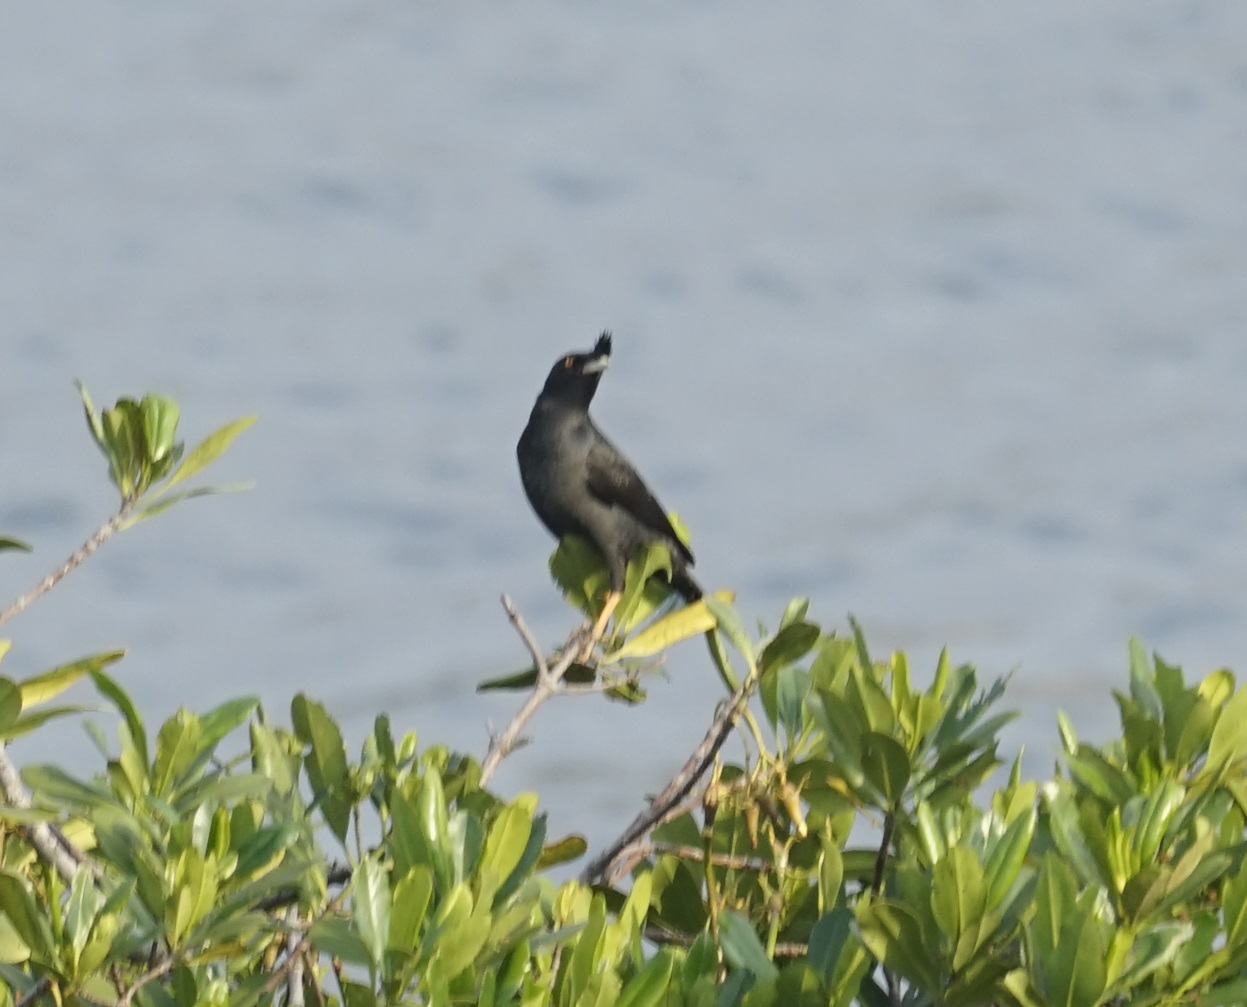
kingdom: Animalia
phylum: Chordata
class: Aves
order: Passeriformes
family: Sturnidae
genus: Acridotheres
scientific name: Acridotheres cristatellus
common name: Crested myna
